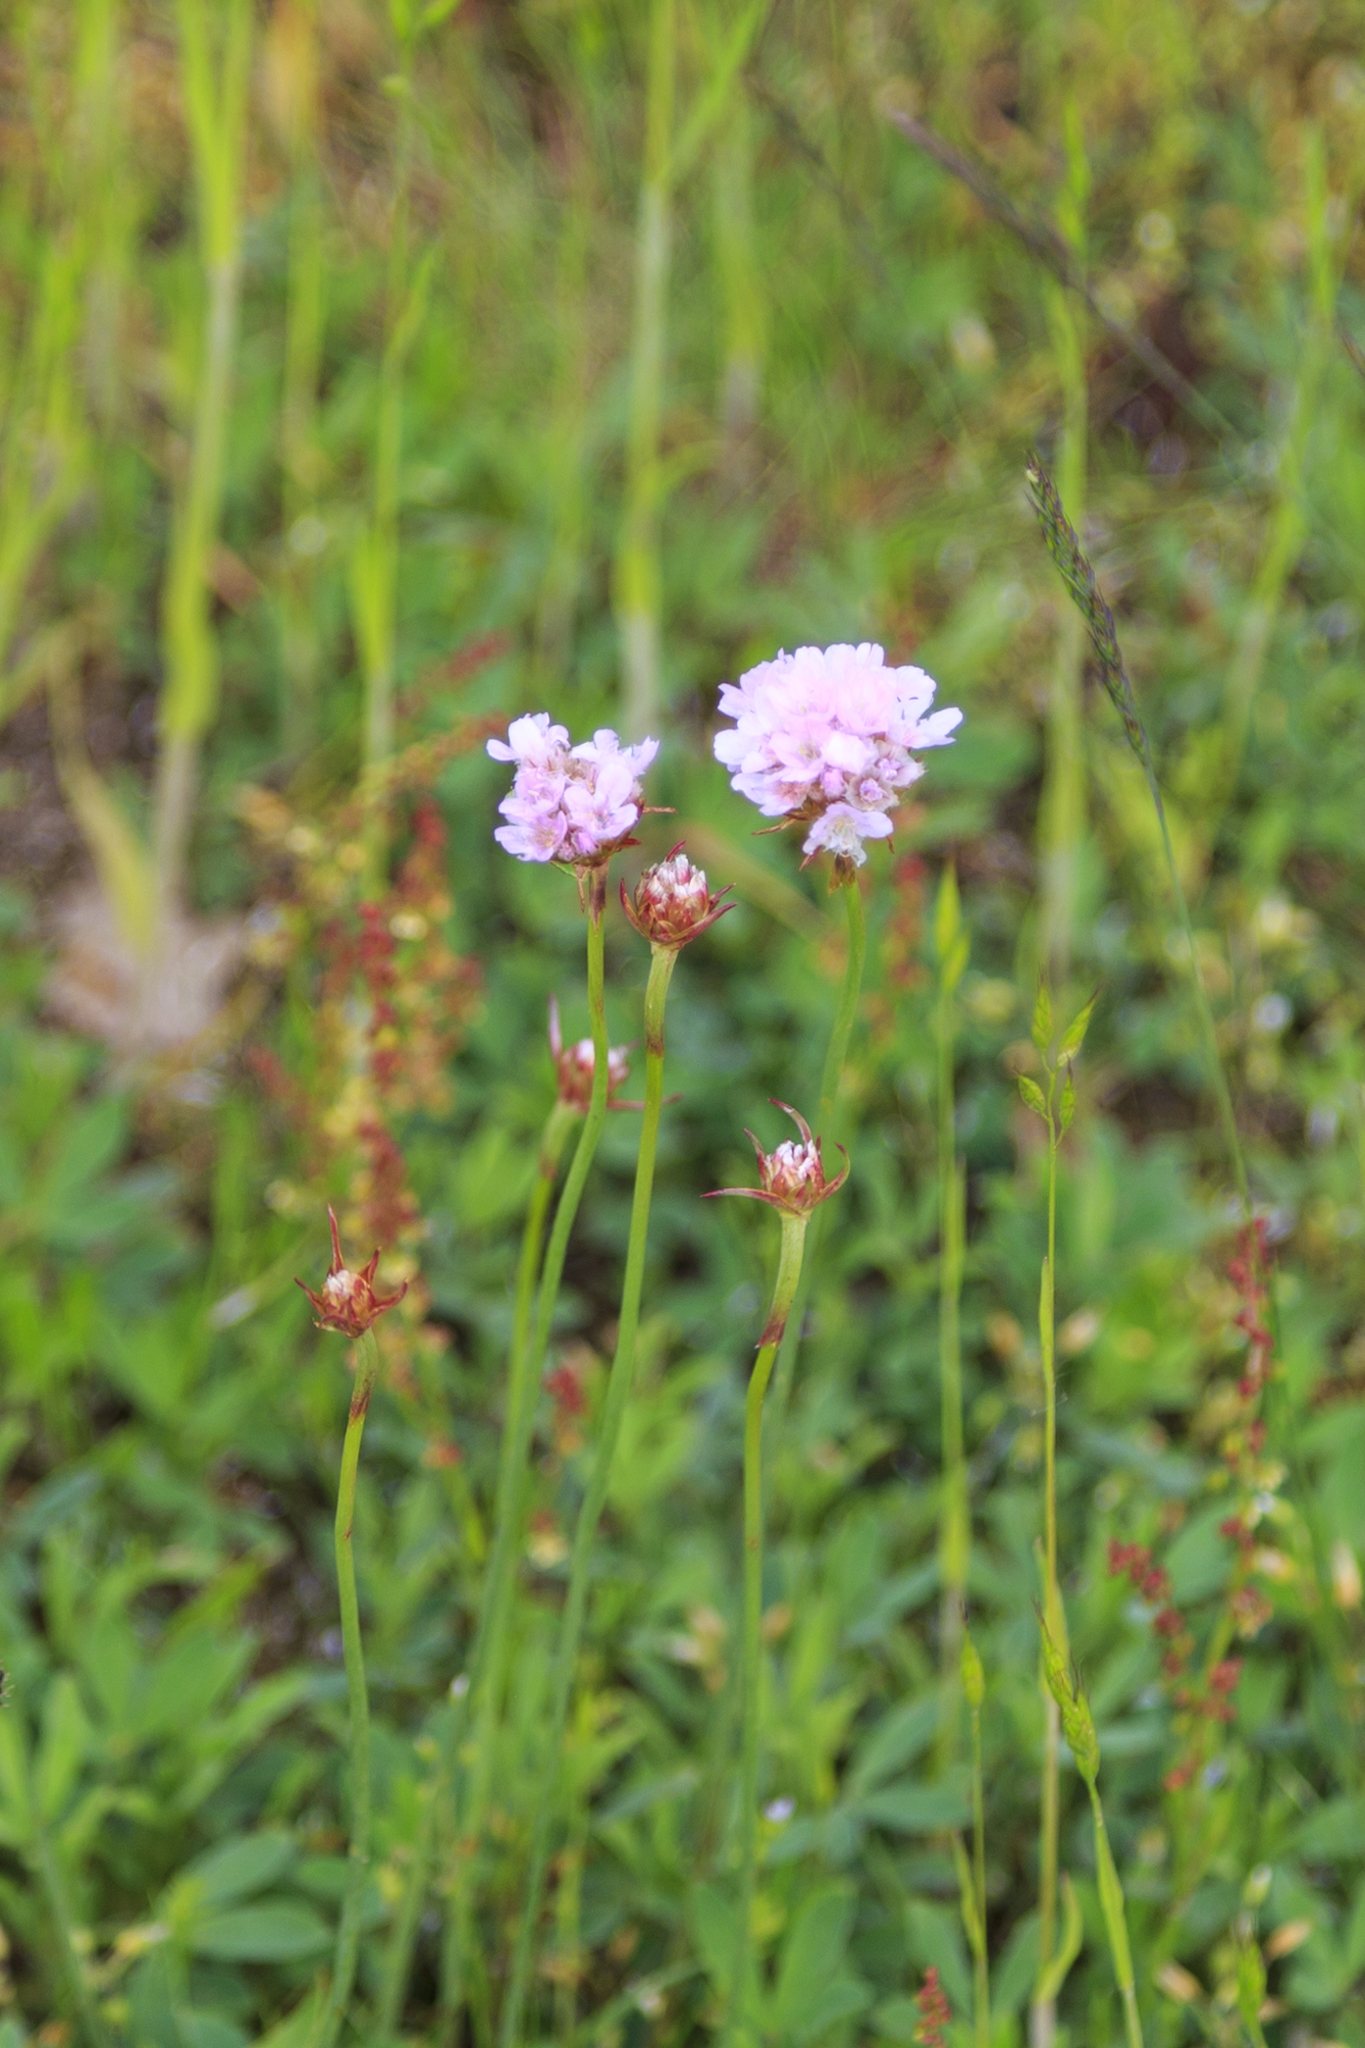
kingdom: Plantae
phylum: Tracheophyta
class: Magnoliopsida
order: Caryophyllales
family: Plumbaginaceae
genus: Armeria
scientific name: Armeria maritima
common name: Thrift
